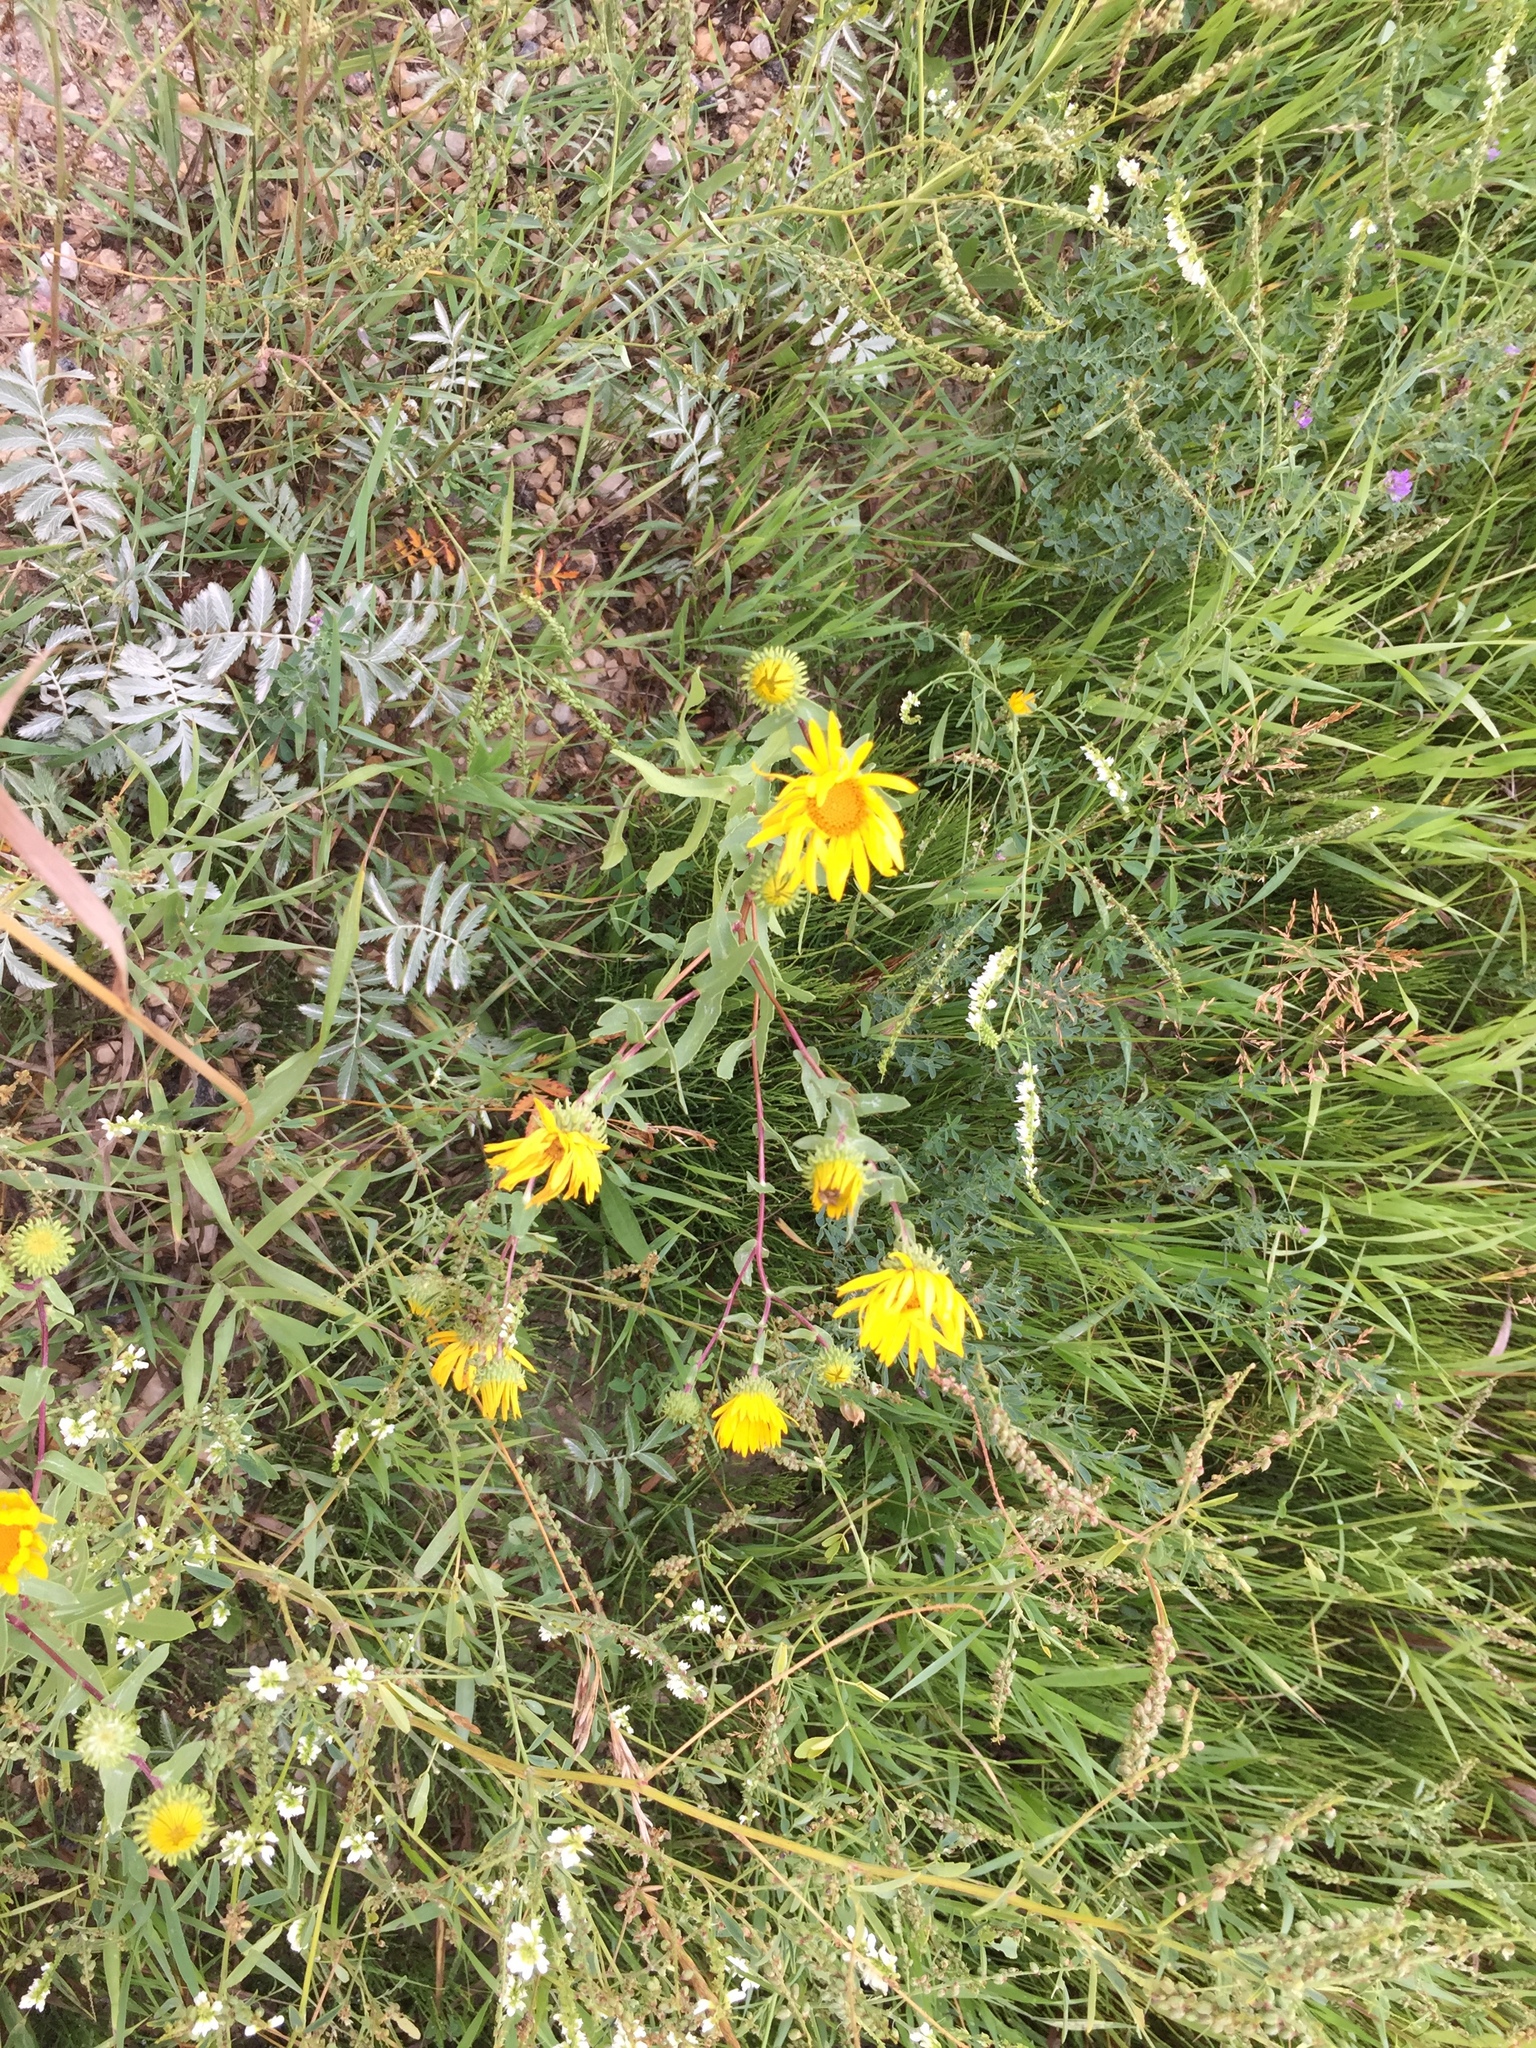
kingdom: Plantae
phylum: Tracheophyta
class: Magnoliopsida
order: Asterales
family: Asteraceae
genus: Grindelia
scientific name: Grindelia squarrosa
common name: Curly-cup gumweed
